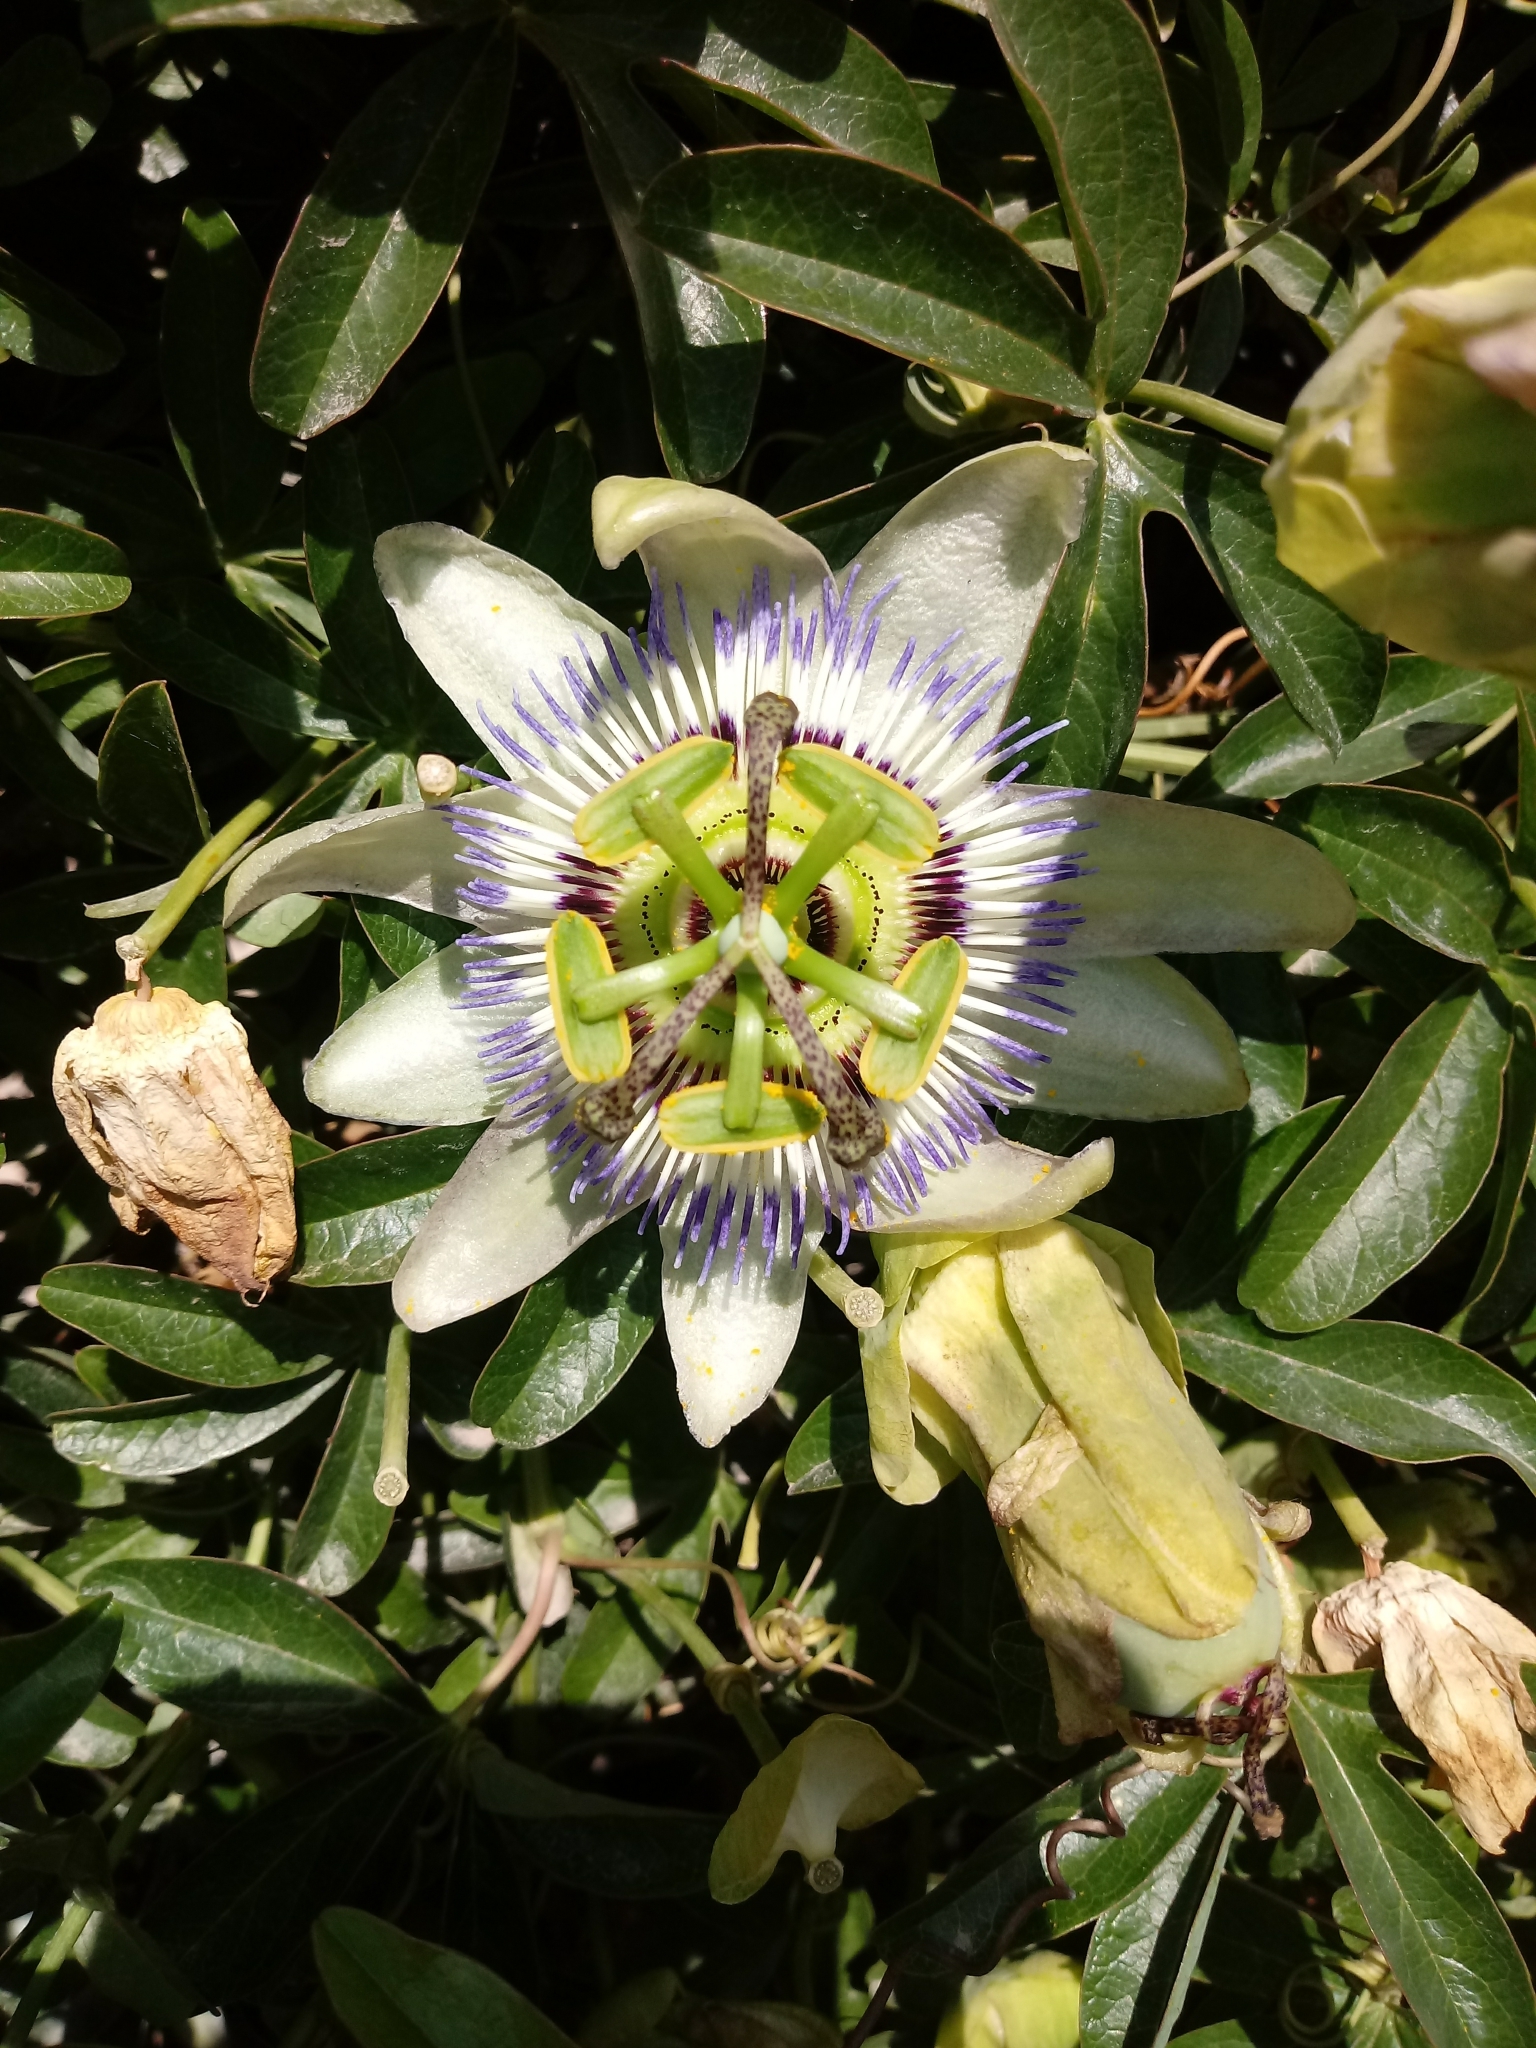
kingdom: Plantae
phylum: Tracheophyta
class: Magnoliopsida
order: Malpighiales
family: Passifloraceae
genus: Passiflora
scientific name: Passiflora caerulea
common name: Blue passionflower
